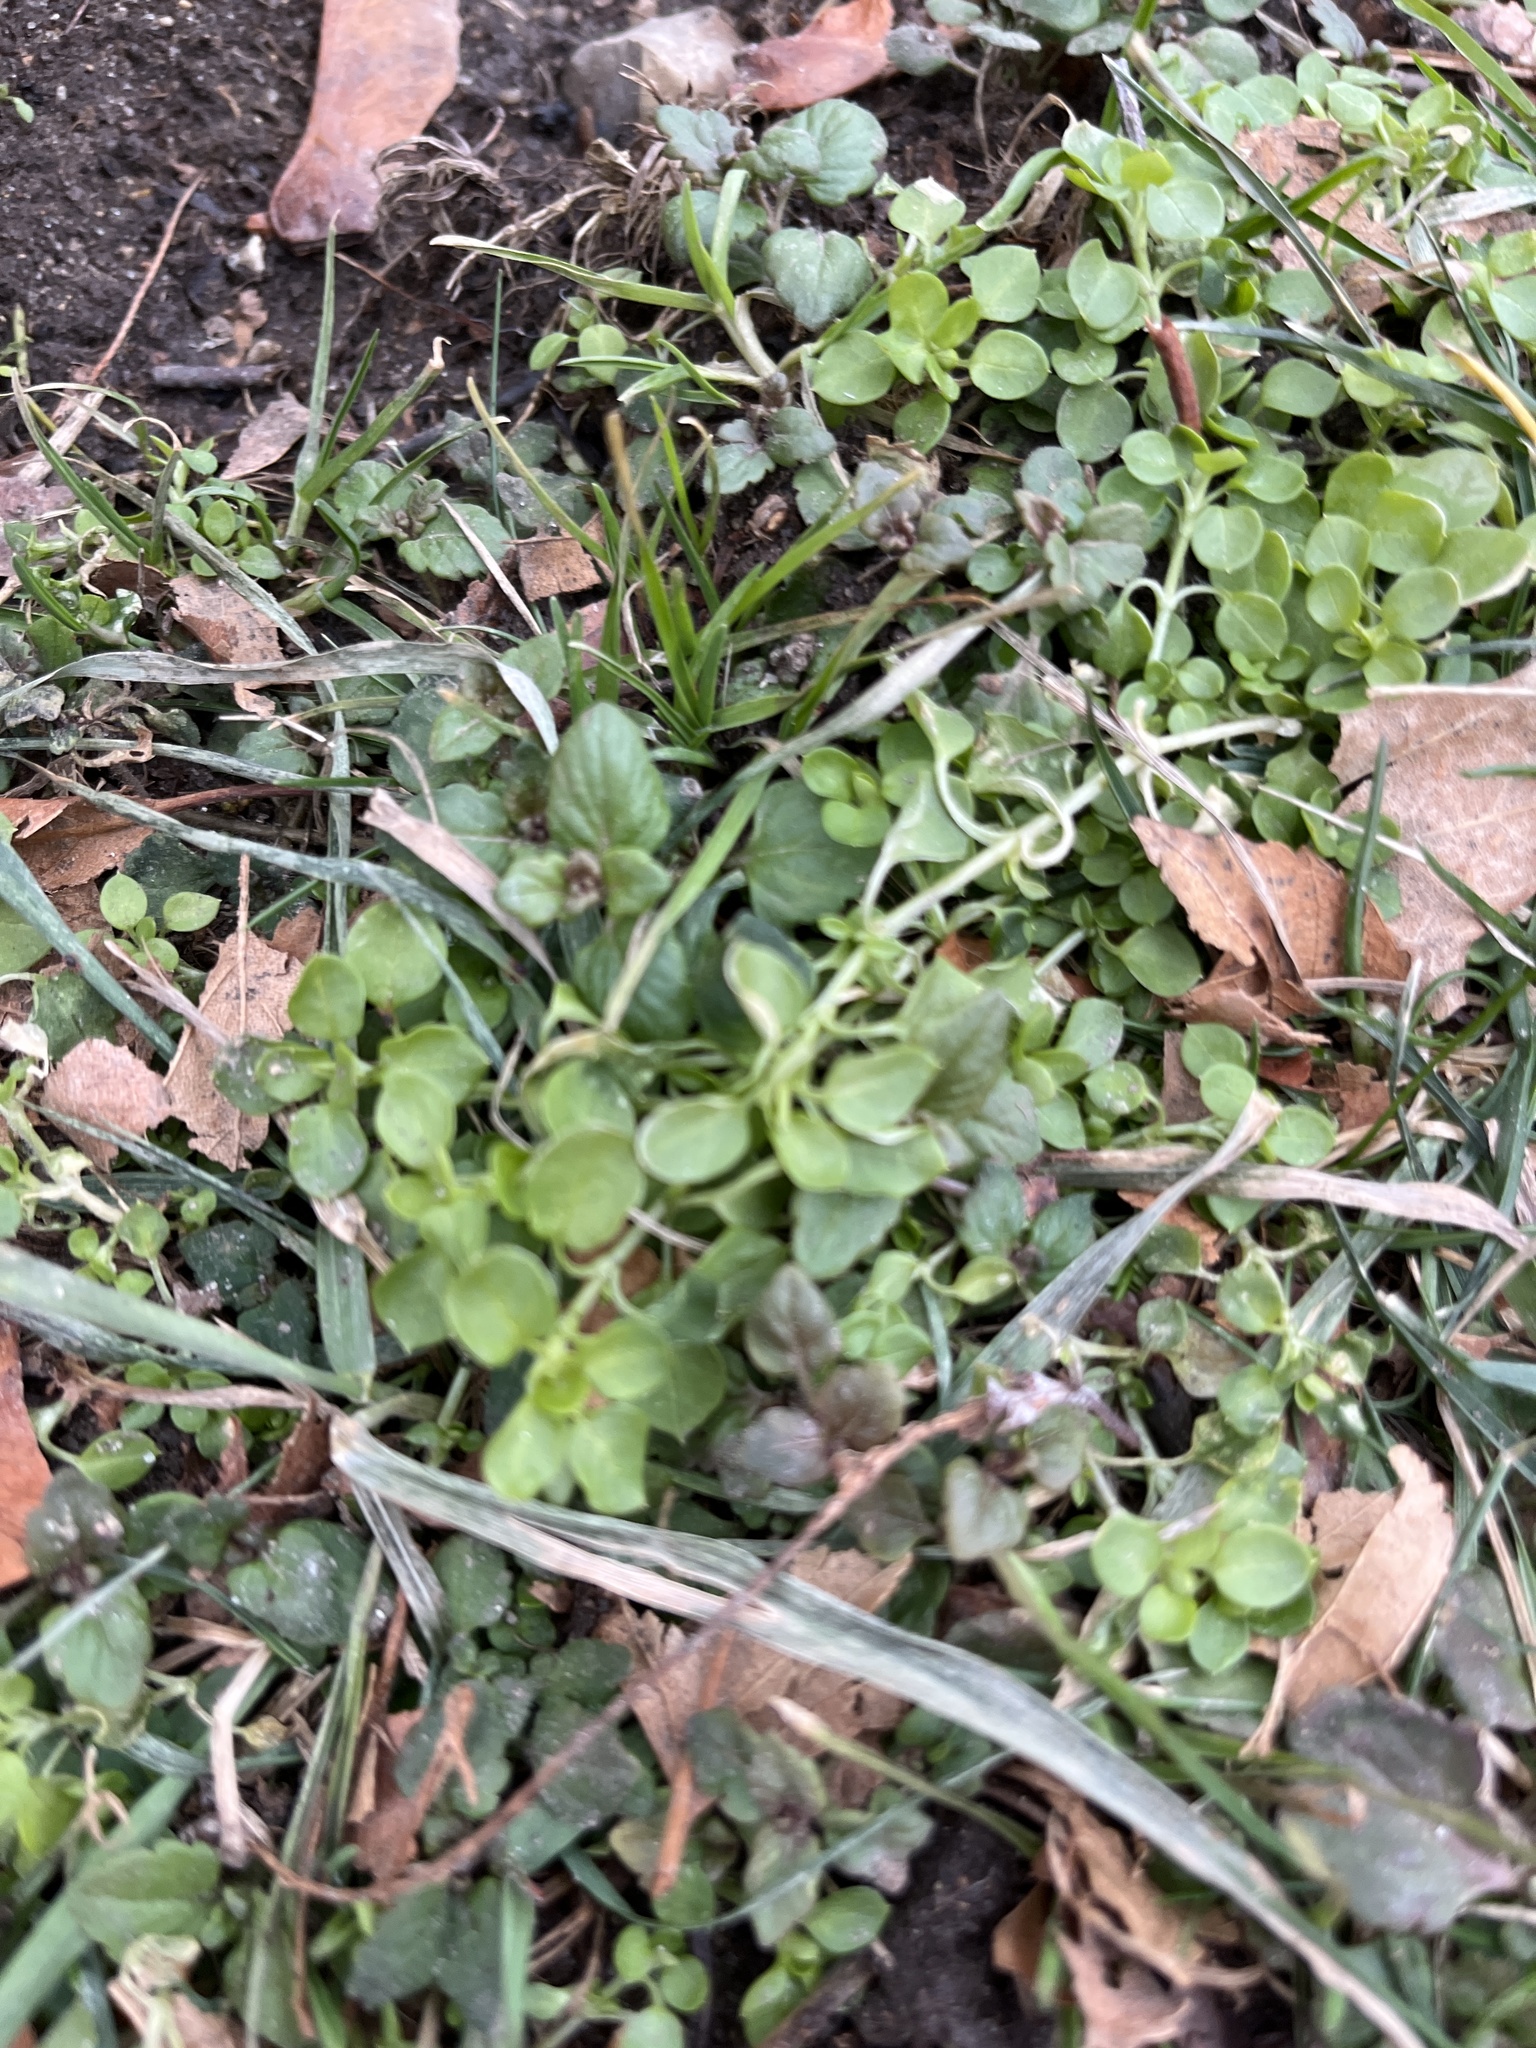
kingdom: Plantae
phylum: Tracheophyta
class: Magnoliopsida
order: Caryophyllales
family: Caryophyllaceae
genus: Stellaria
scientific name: Stellaria media
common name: Common chickweed
